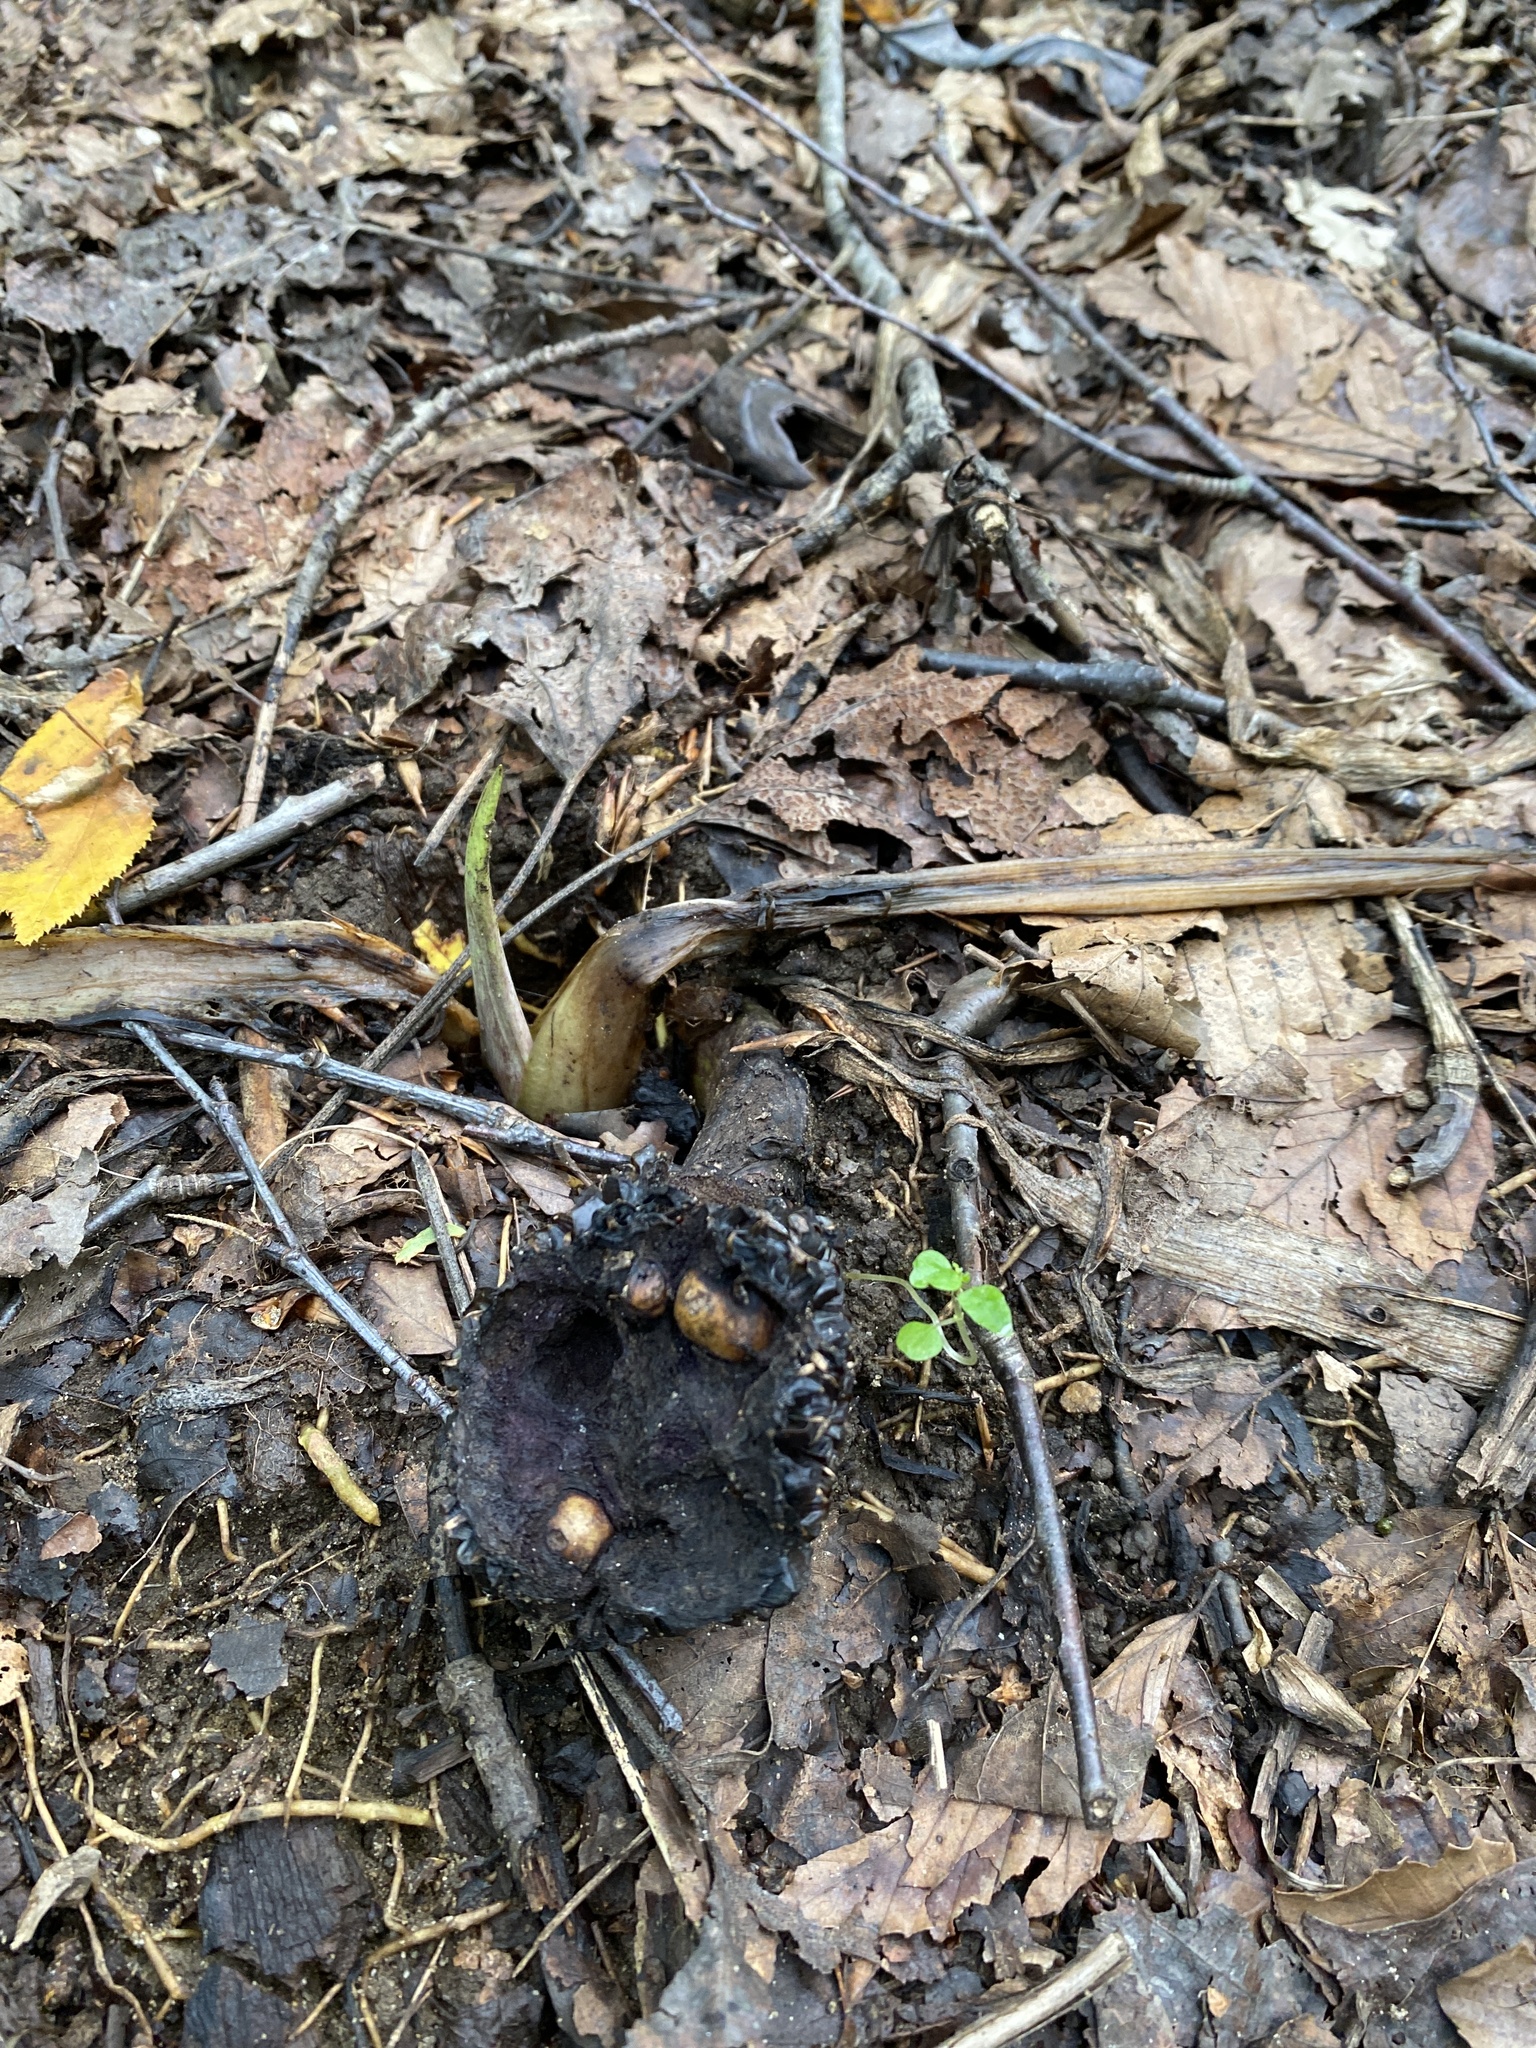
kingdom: Plantae
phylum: Tracheophyta
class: Liliopsida
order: Alismatales
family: Araceae
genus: Symplocarpus
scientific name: Symplocarpus foetidus
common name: Eastern skunk cabbage
